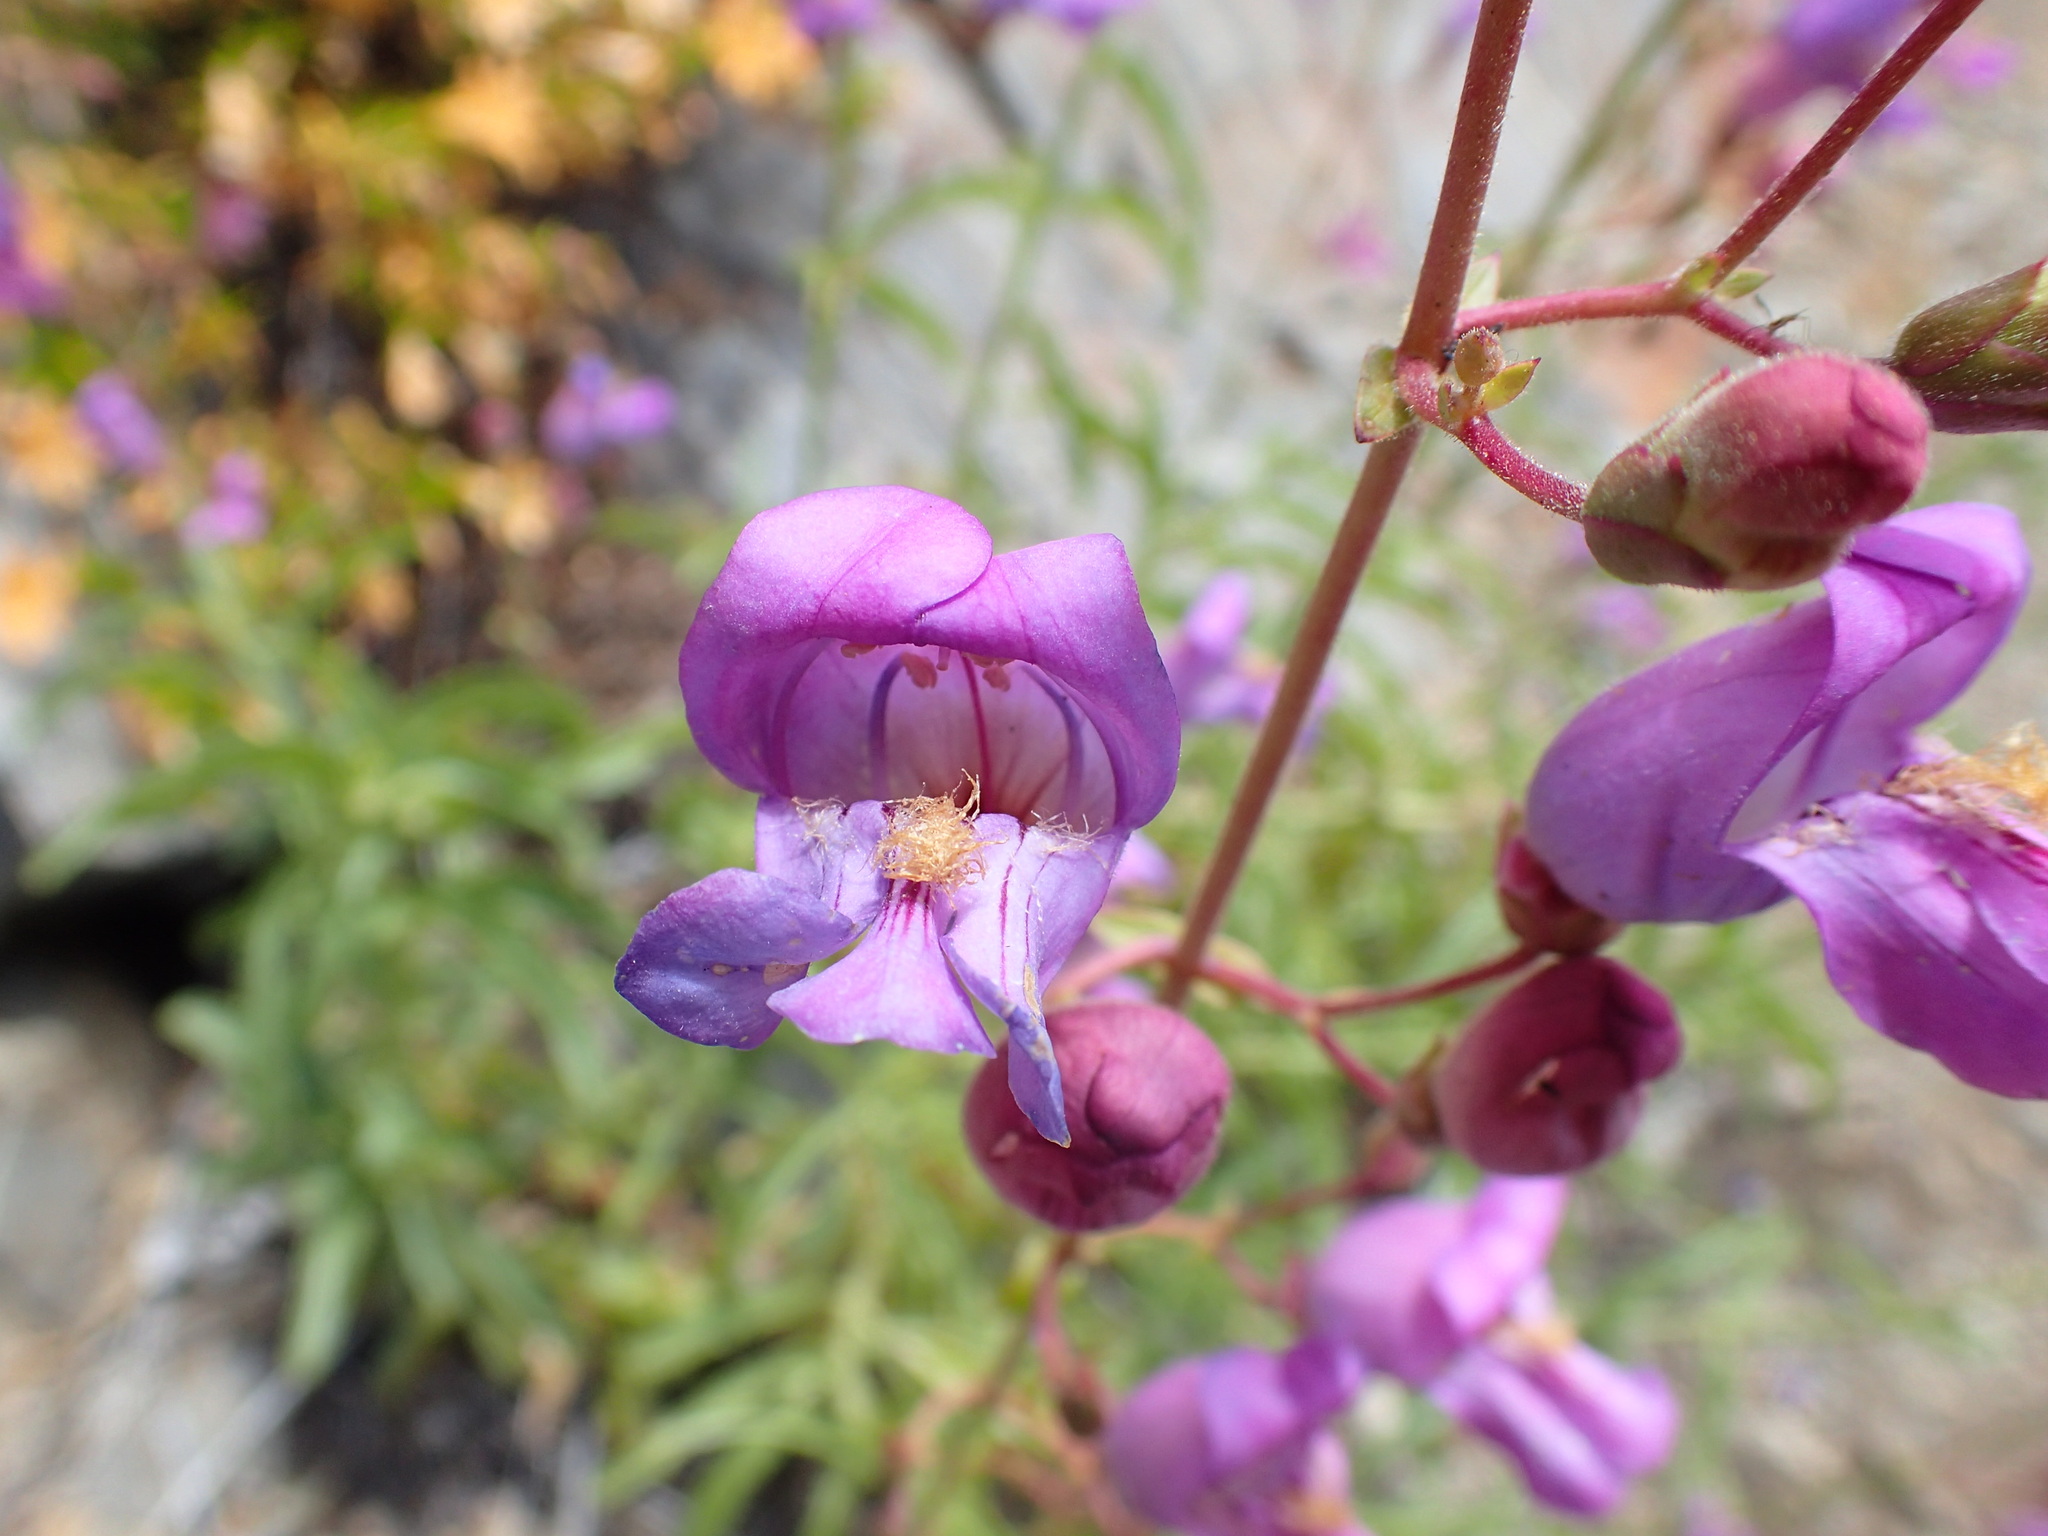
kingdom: Plantae
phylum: Tracheophyta
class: Magnoliopsida
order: Lamiales
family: Plantaginaceae
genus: Penstemon
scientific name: Penstemon grinnellii
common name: Grinnell's beardtongue
